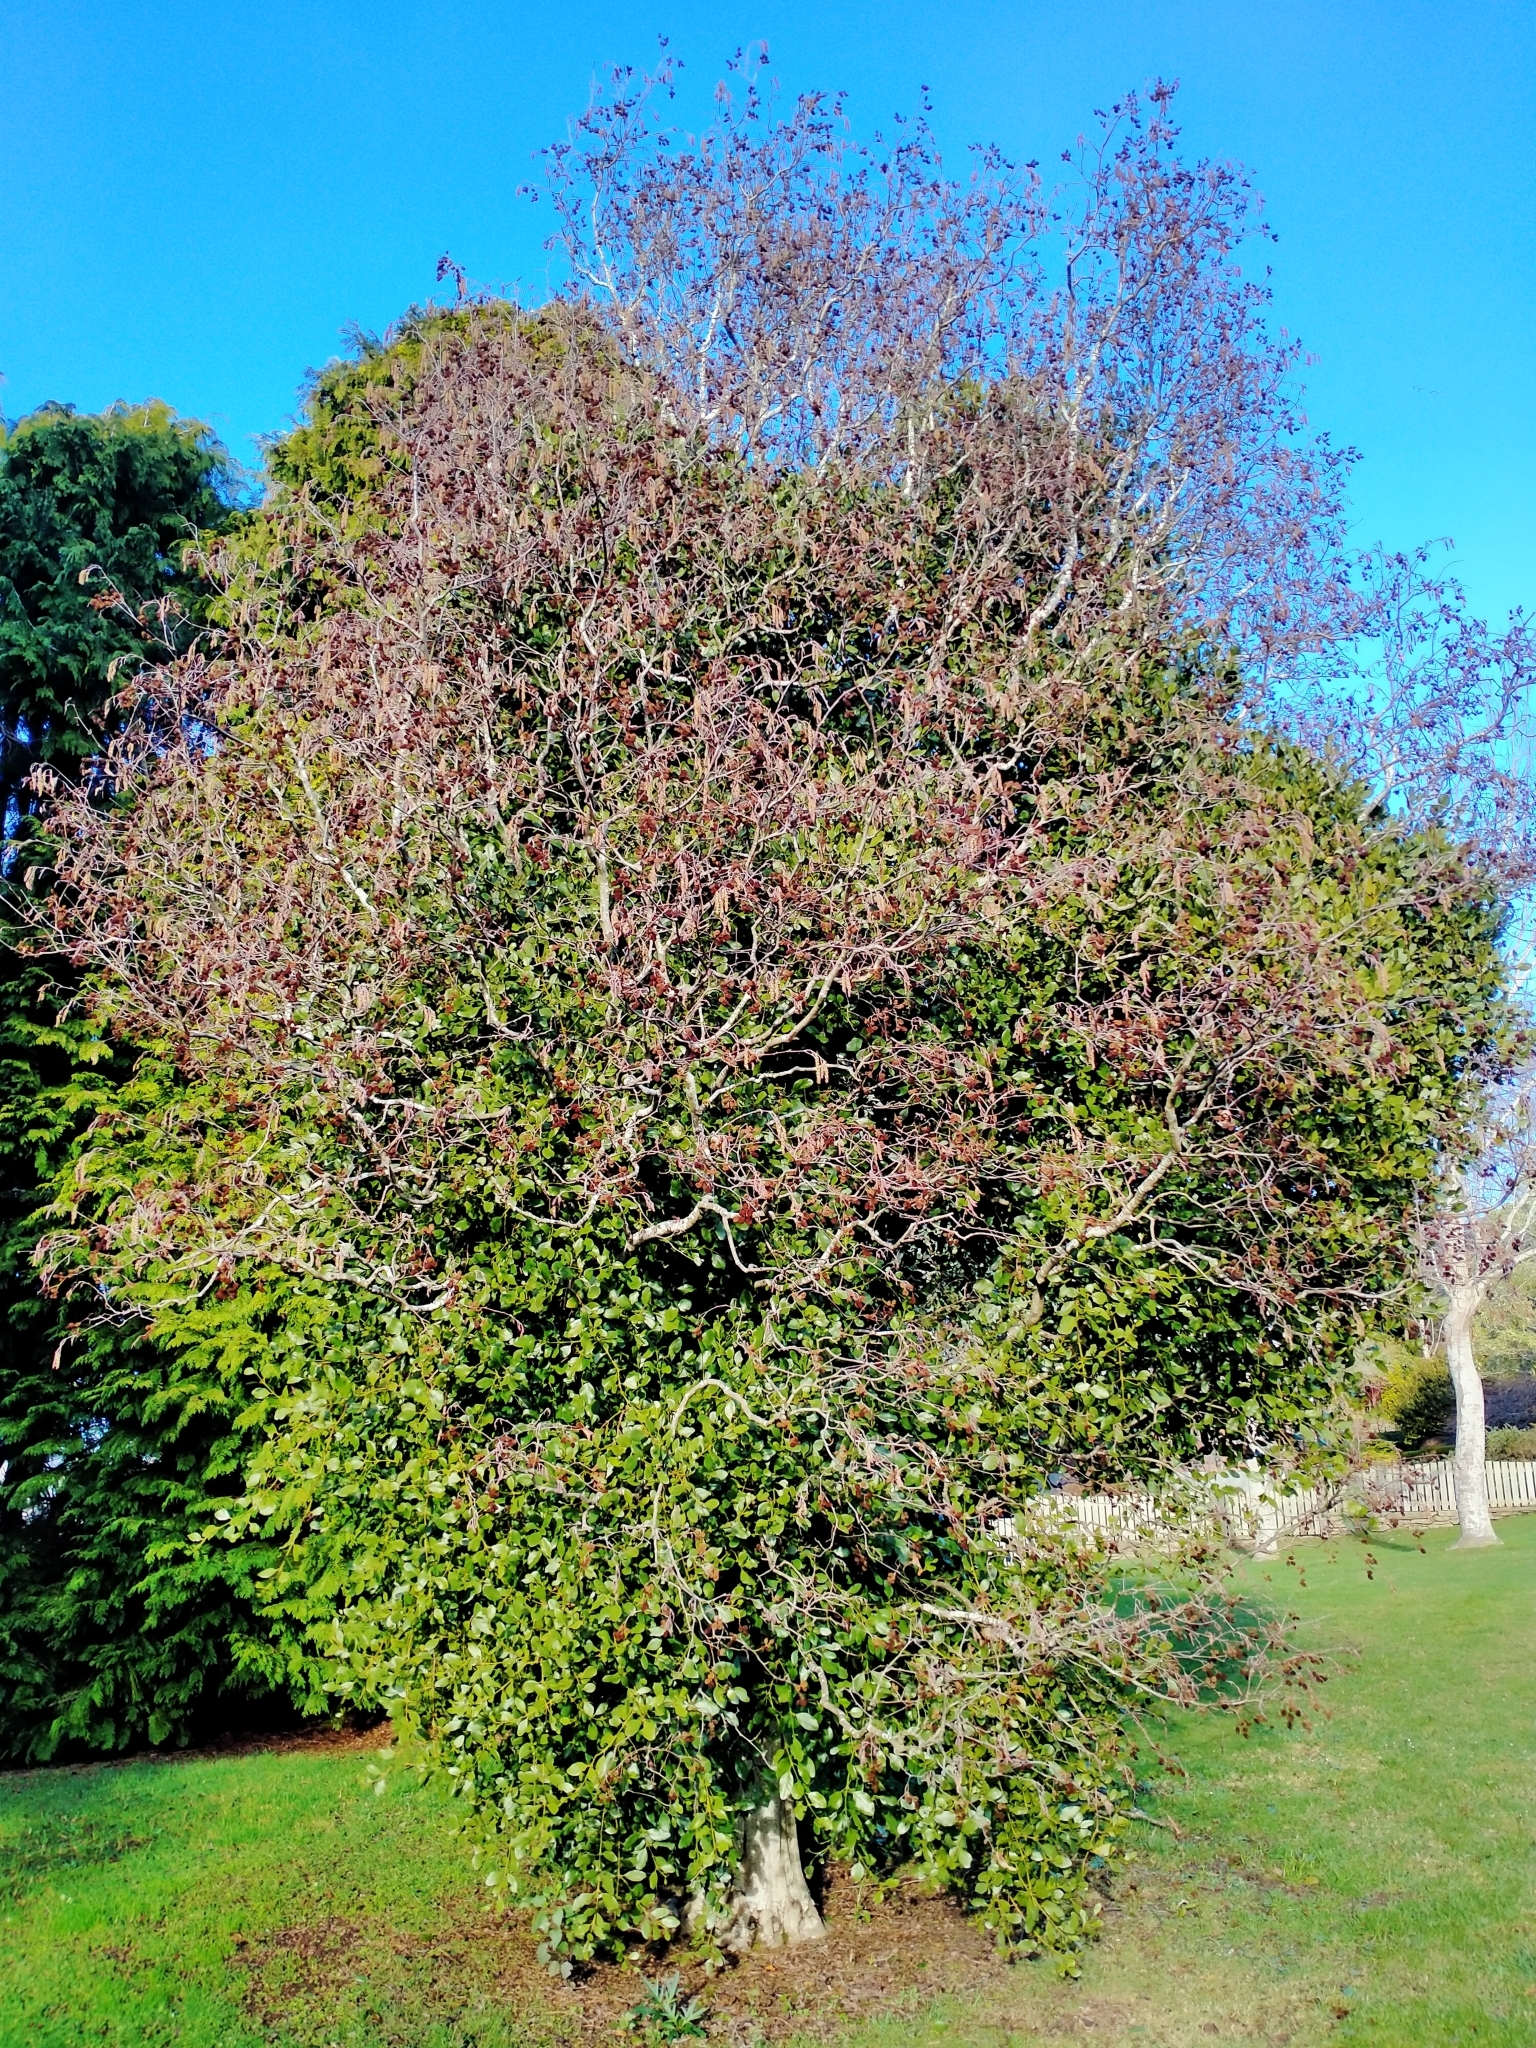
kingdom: Plantae
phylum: Tracheophyta
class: Magnoliopsida
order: Santalales
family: Loranthaceae
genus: Ileostylus
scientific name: Ileostylus micranthus
